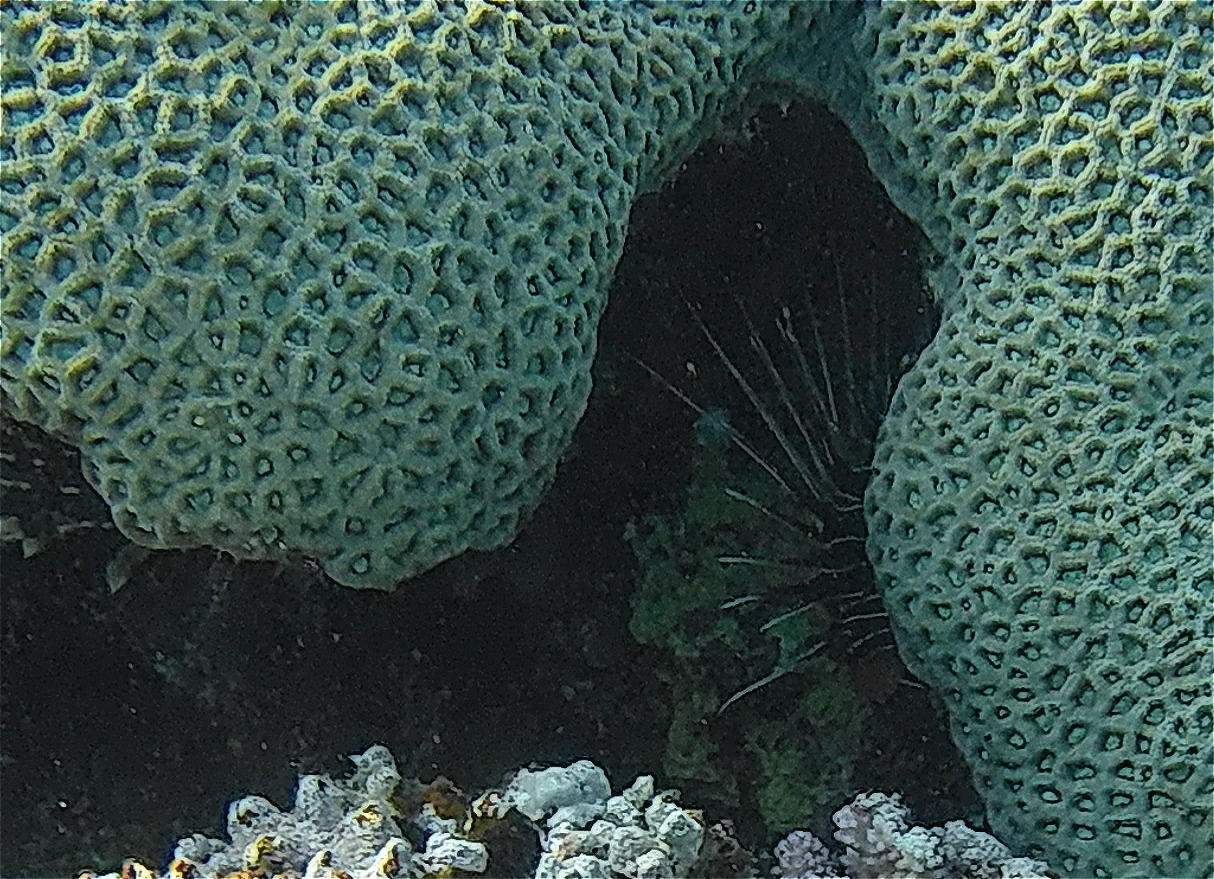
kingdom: Animalia
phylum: Chordata
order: Scorpaeniformes
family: Scorpaenidae
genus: Pterois
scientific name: Pterois cincta
